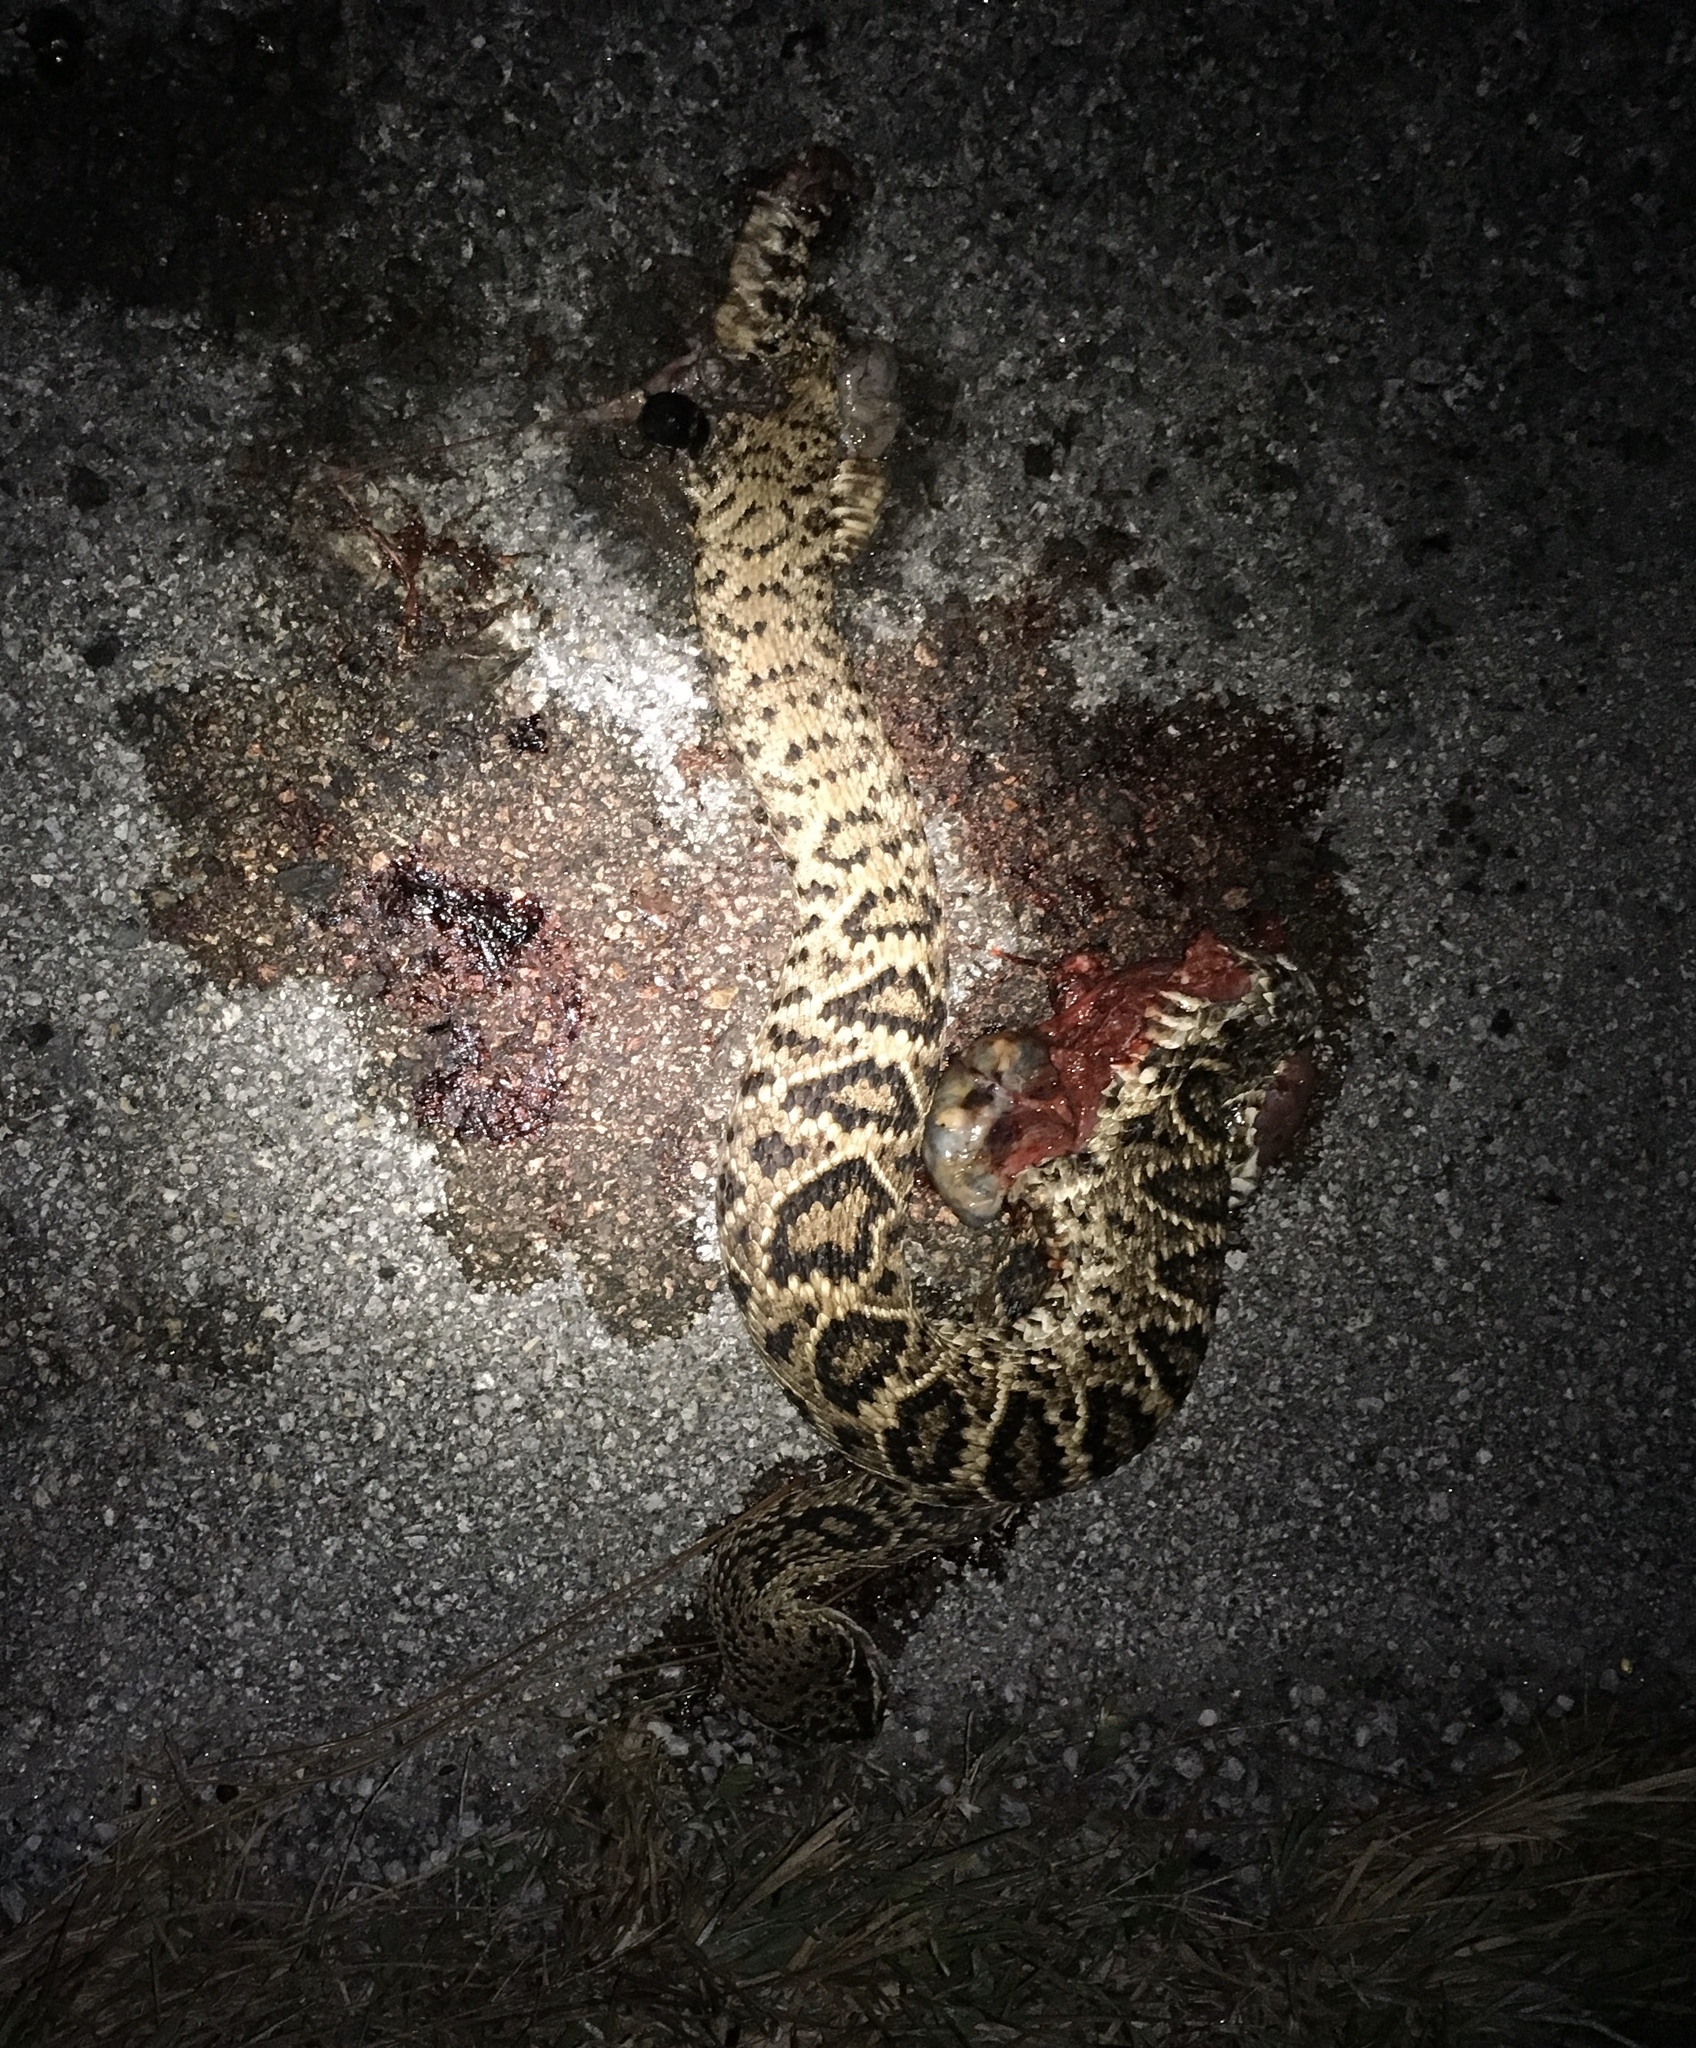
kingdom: Animalia
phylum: Chordata
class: Squamata
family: Viperidae
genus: Crotalus
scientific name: Crotalus adamanteus
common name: Eastern diamondback rattlesnake
